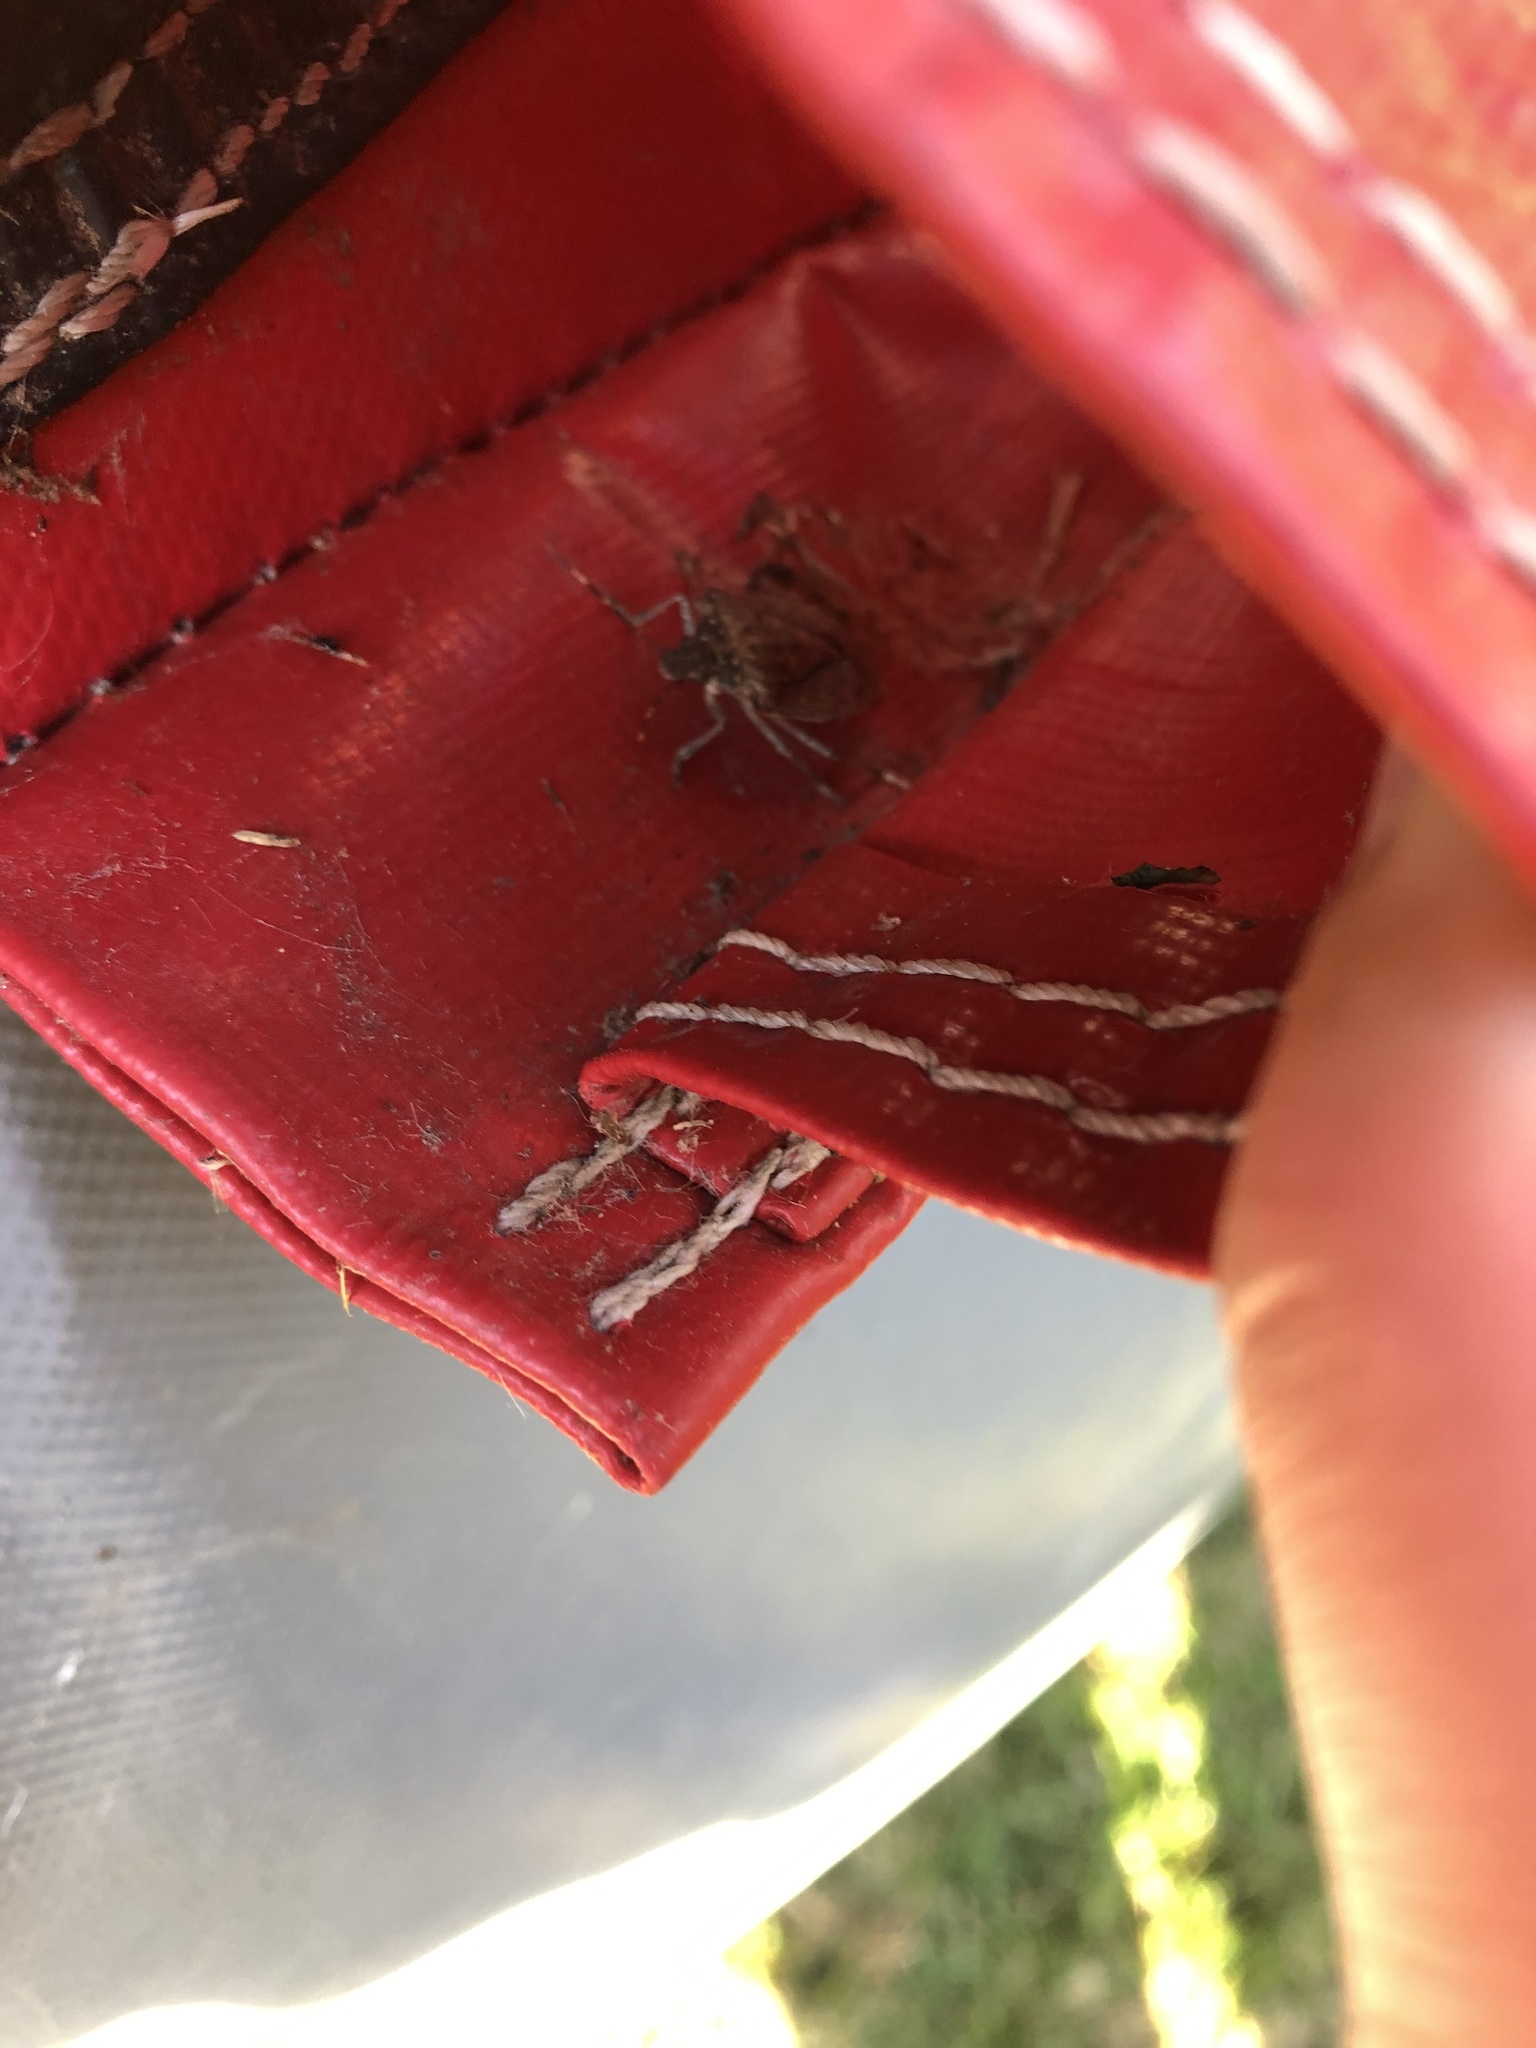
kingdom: Animalia
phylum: Arthropoda
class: Insecta
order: Hemiptera
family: Pentatomidae
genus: Halyomorpha
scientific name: Halyomorpha halys
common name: Brown marmorated stink bug
